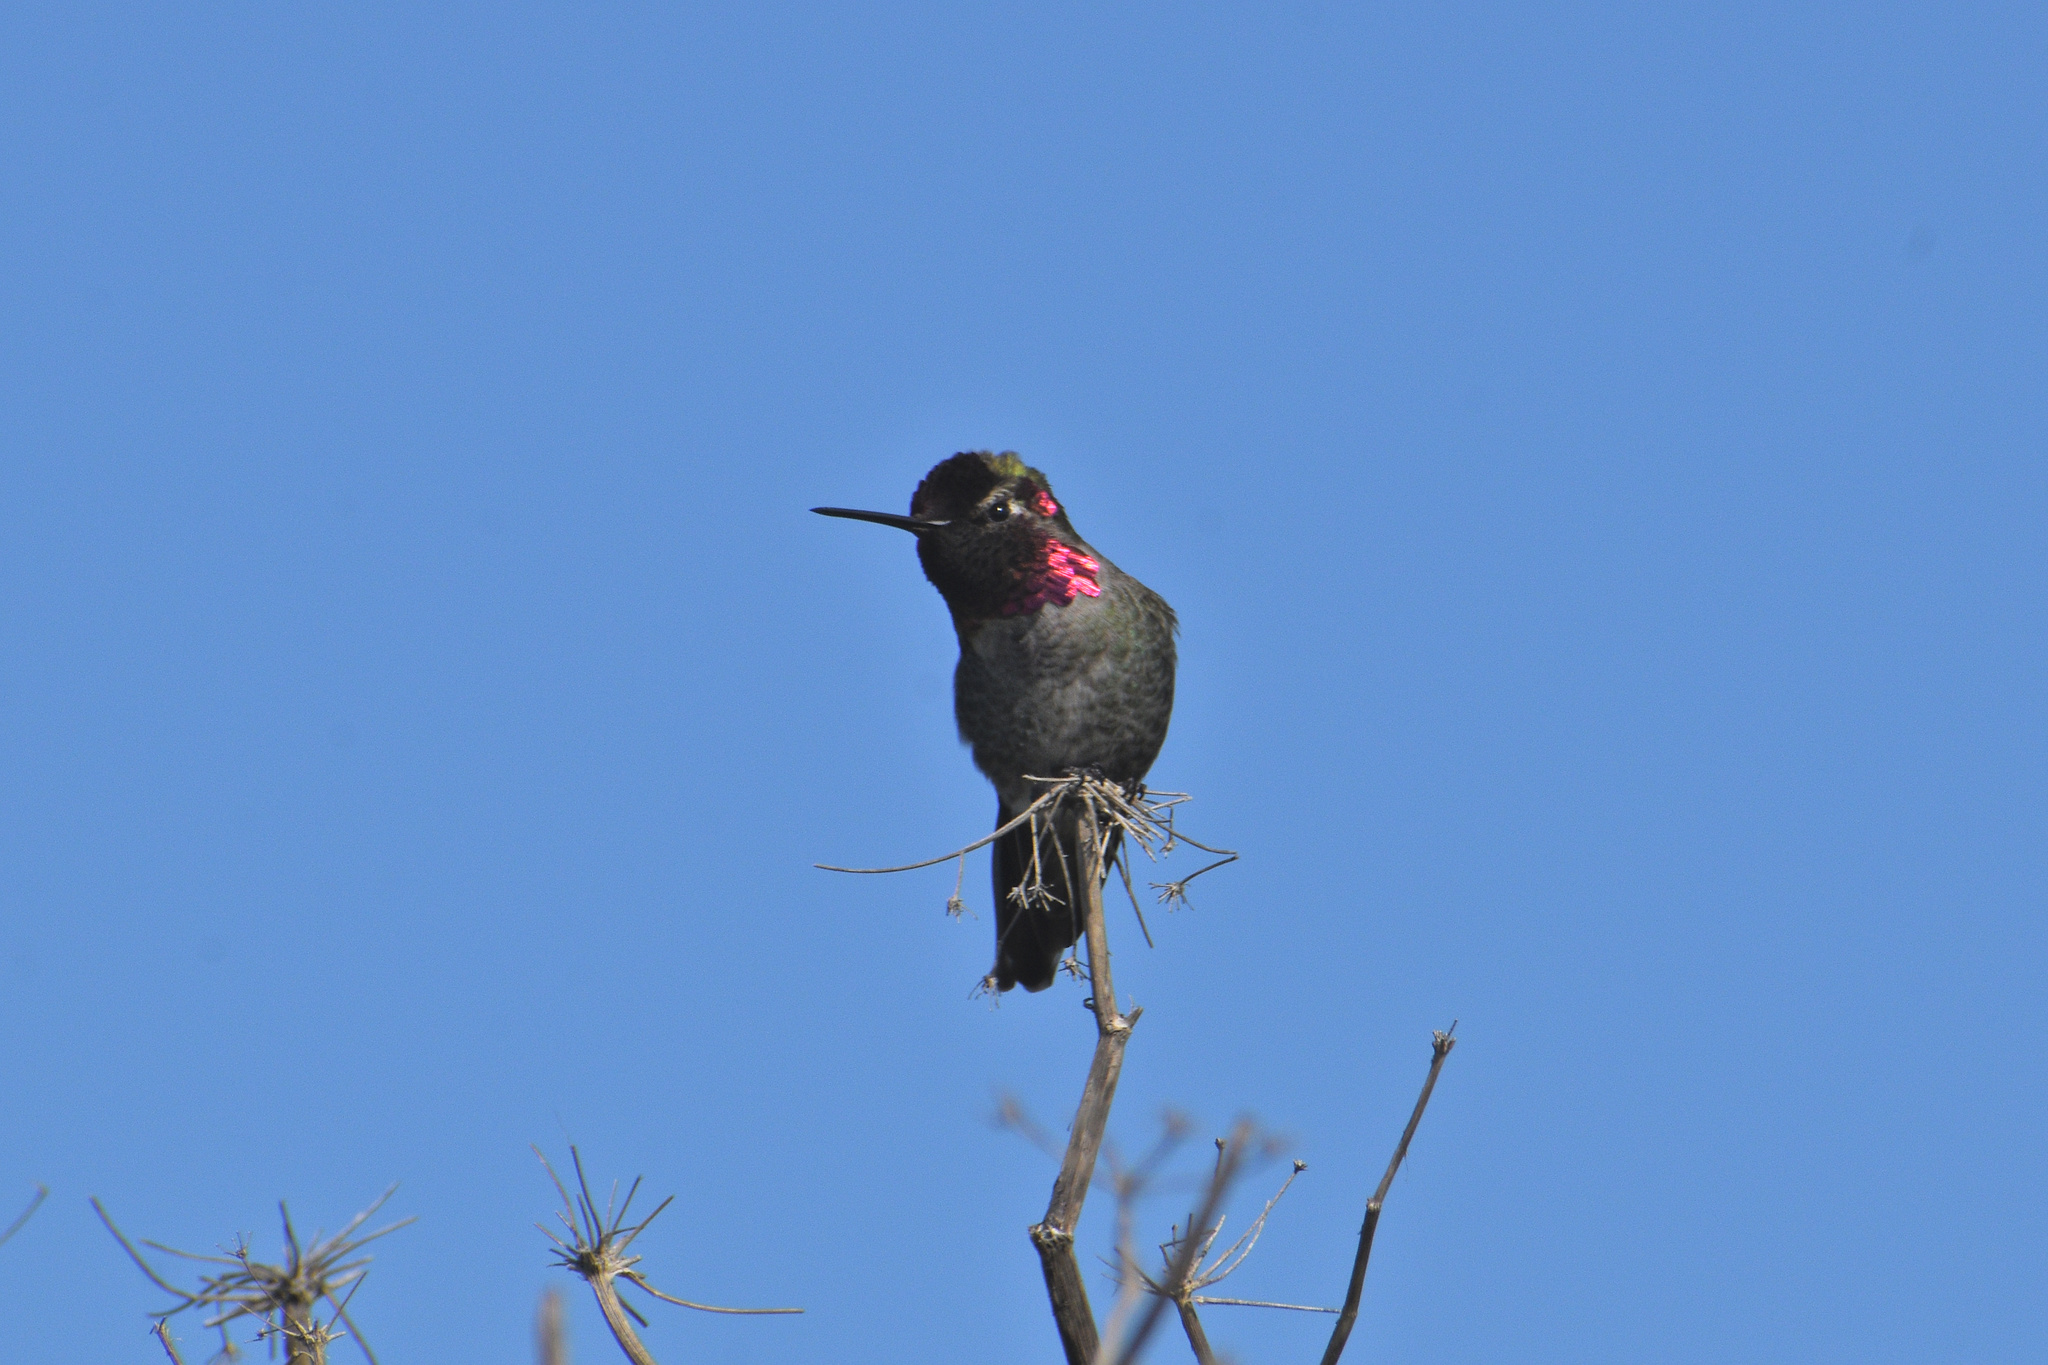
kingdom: Animalia
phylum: Chordata
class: Aves
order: Apodiformes
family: Trochilidae
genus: Calypte
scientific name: Calypte anna
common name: Anna's hummingbird
